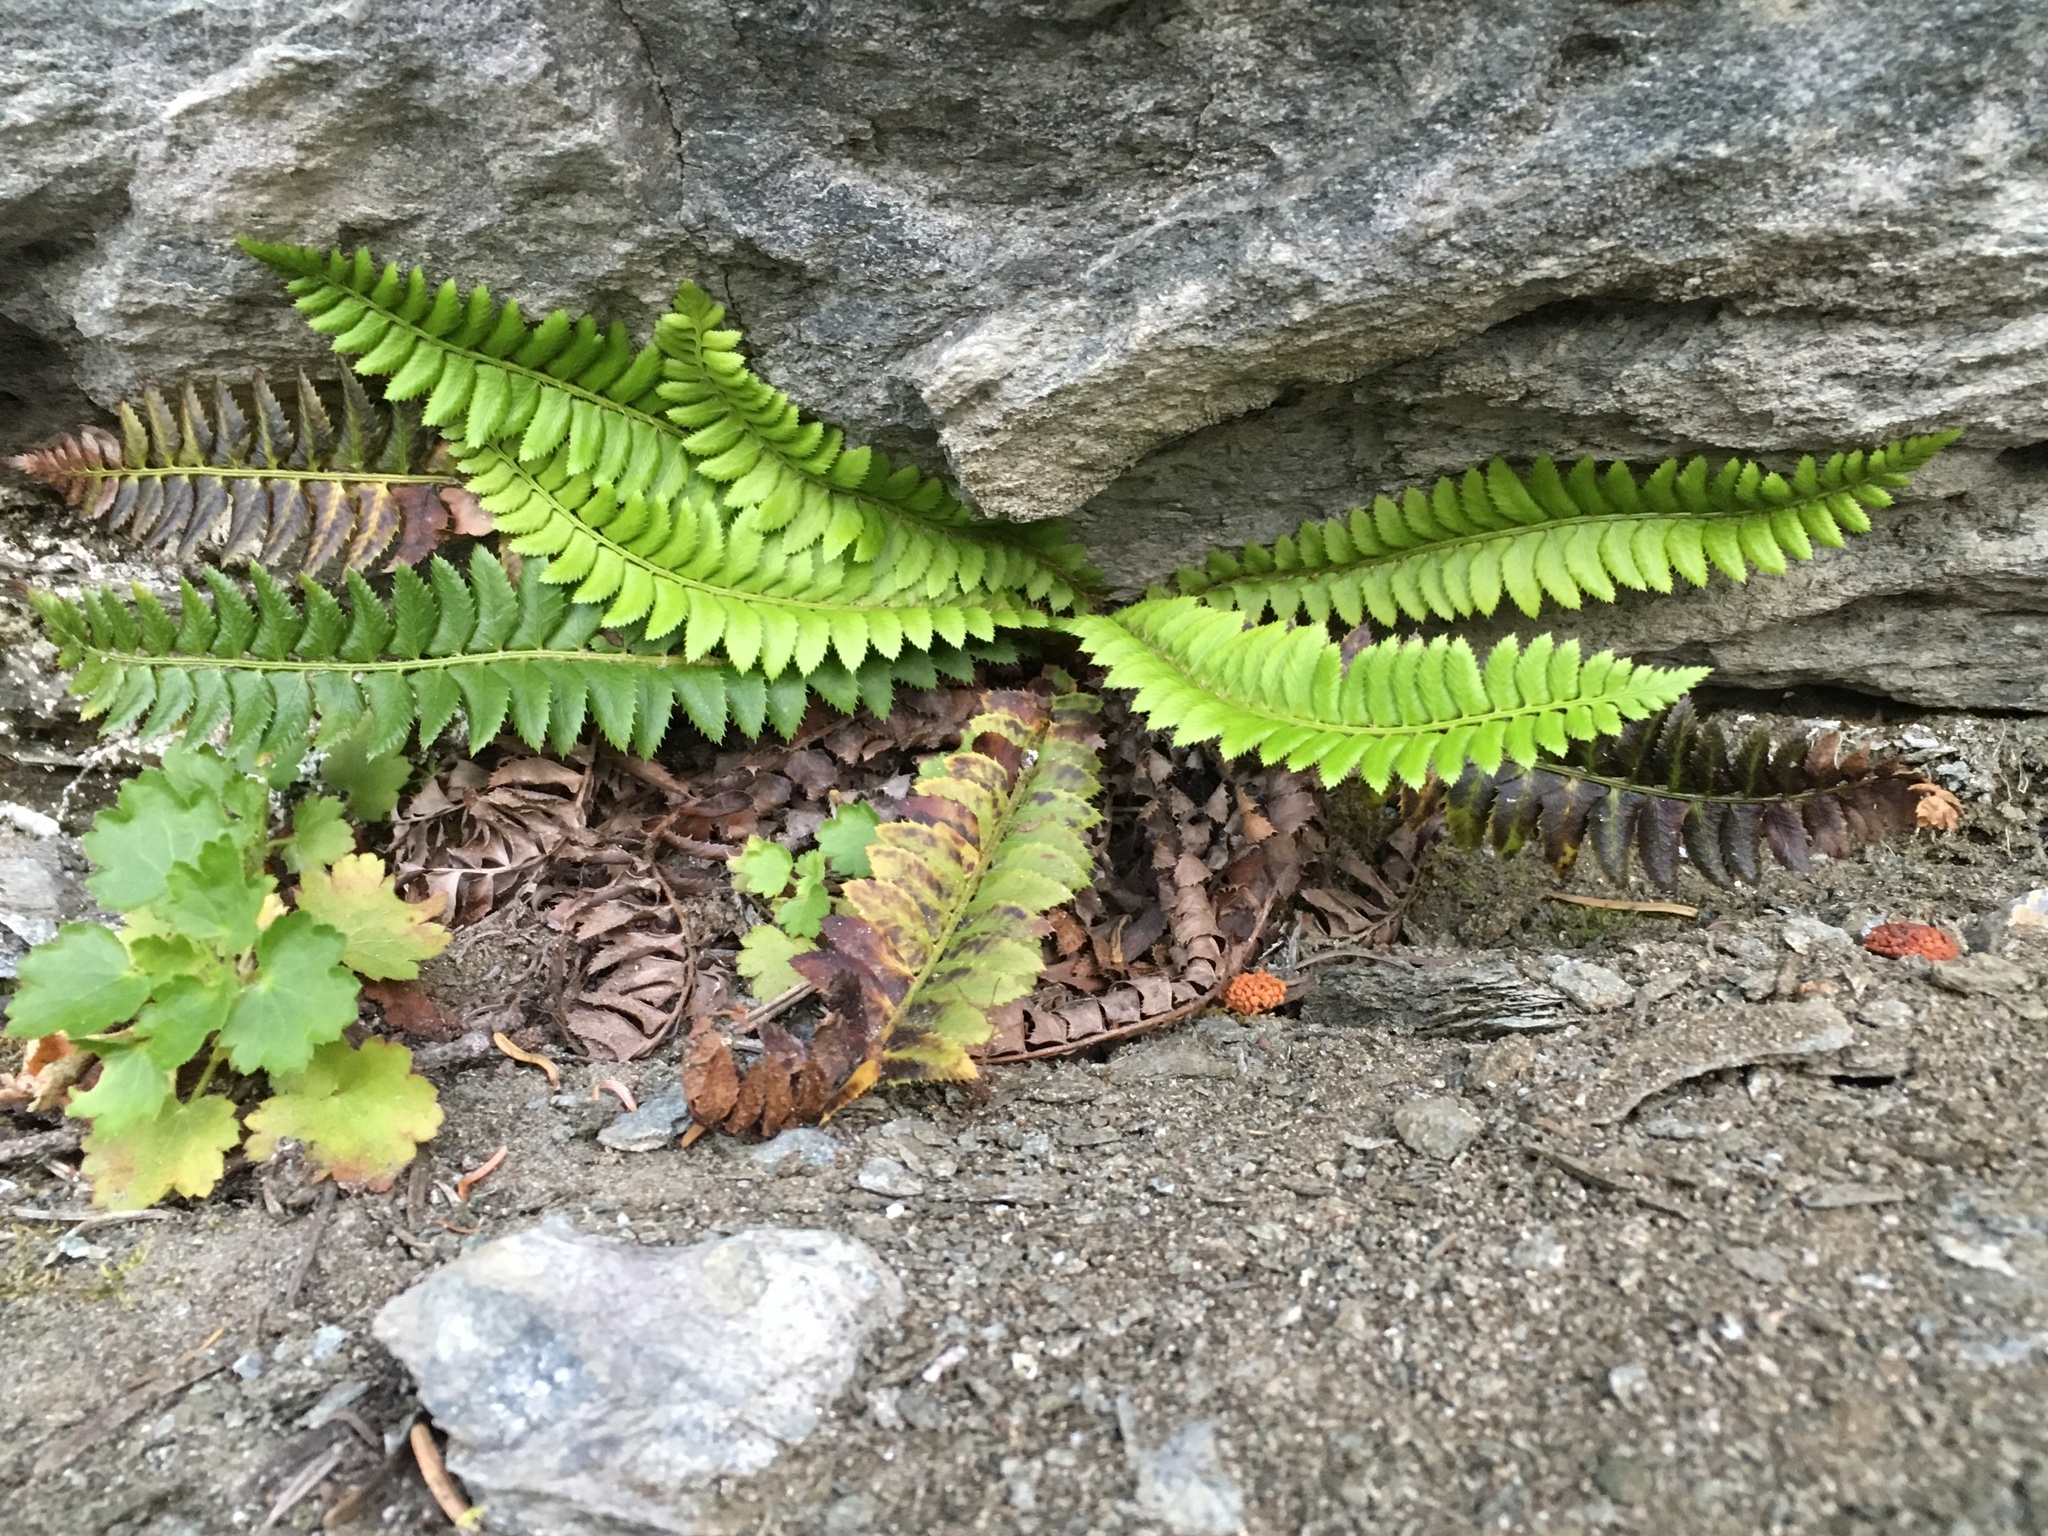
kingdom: Plantae
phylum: Tracheophyta
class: Polypodiopsida
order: Polypodiales
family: Dryopteridaceae
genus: Polystichum
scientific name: Polystichum lonchitis
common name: Holly fern
